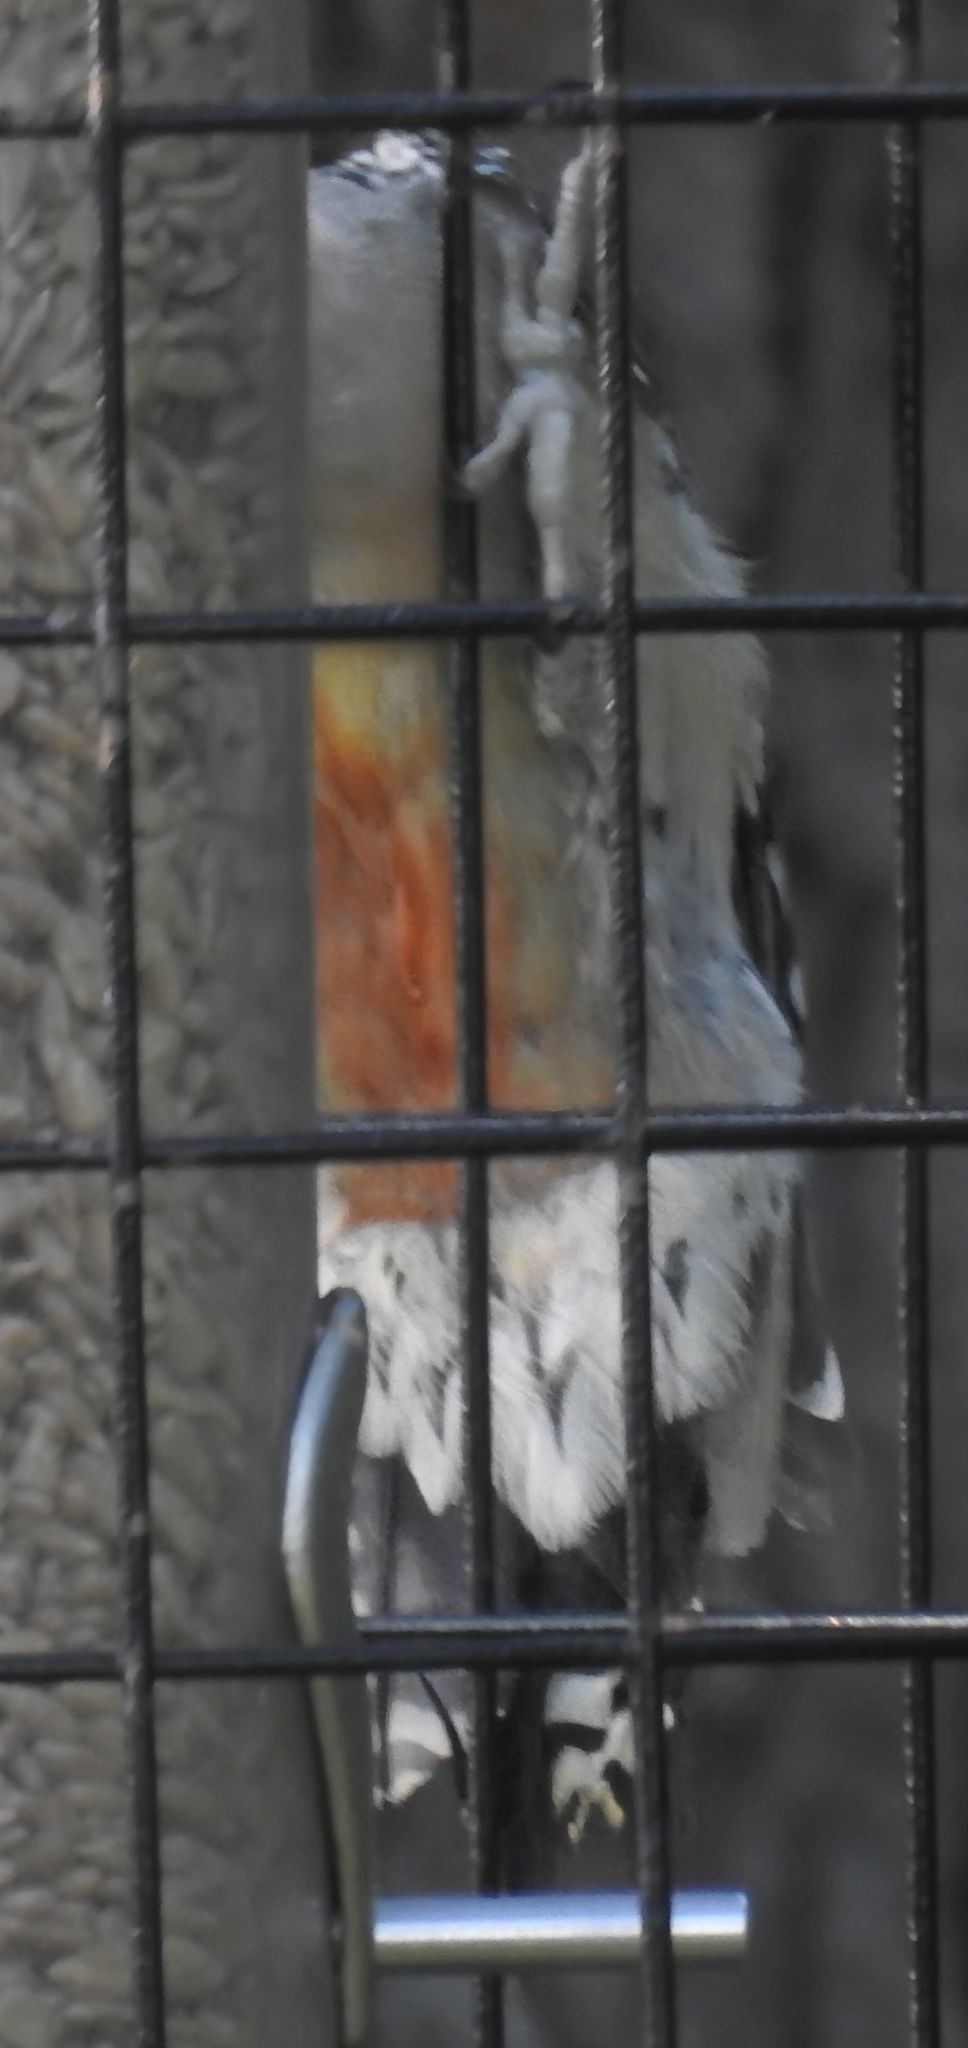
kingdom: Animalia
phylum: Chordata
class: Aves
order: Piciformes
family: Picidae
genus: Melanerpes
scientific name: Melanerpes carolinus
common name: Red-bellied woodpecker
